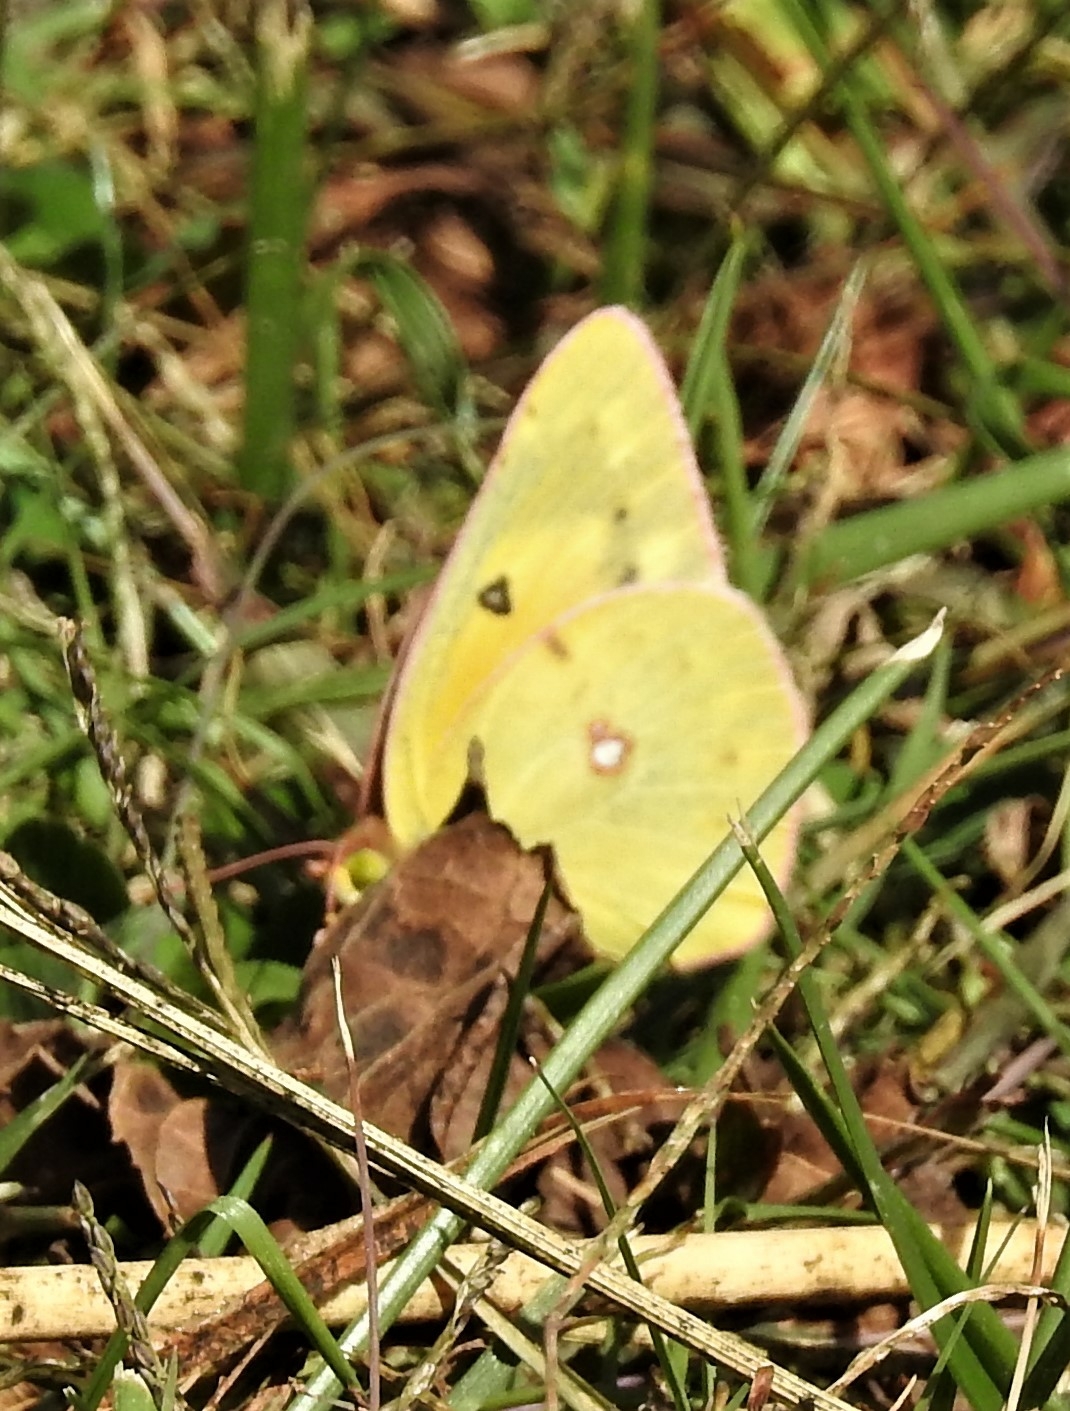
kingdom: Animalia
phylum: Arthropoda
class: Insecta
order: Lepidoptera
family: Pieridae
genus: Colias
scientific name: Colias eurytheme
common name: Alfalfa butterfly
